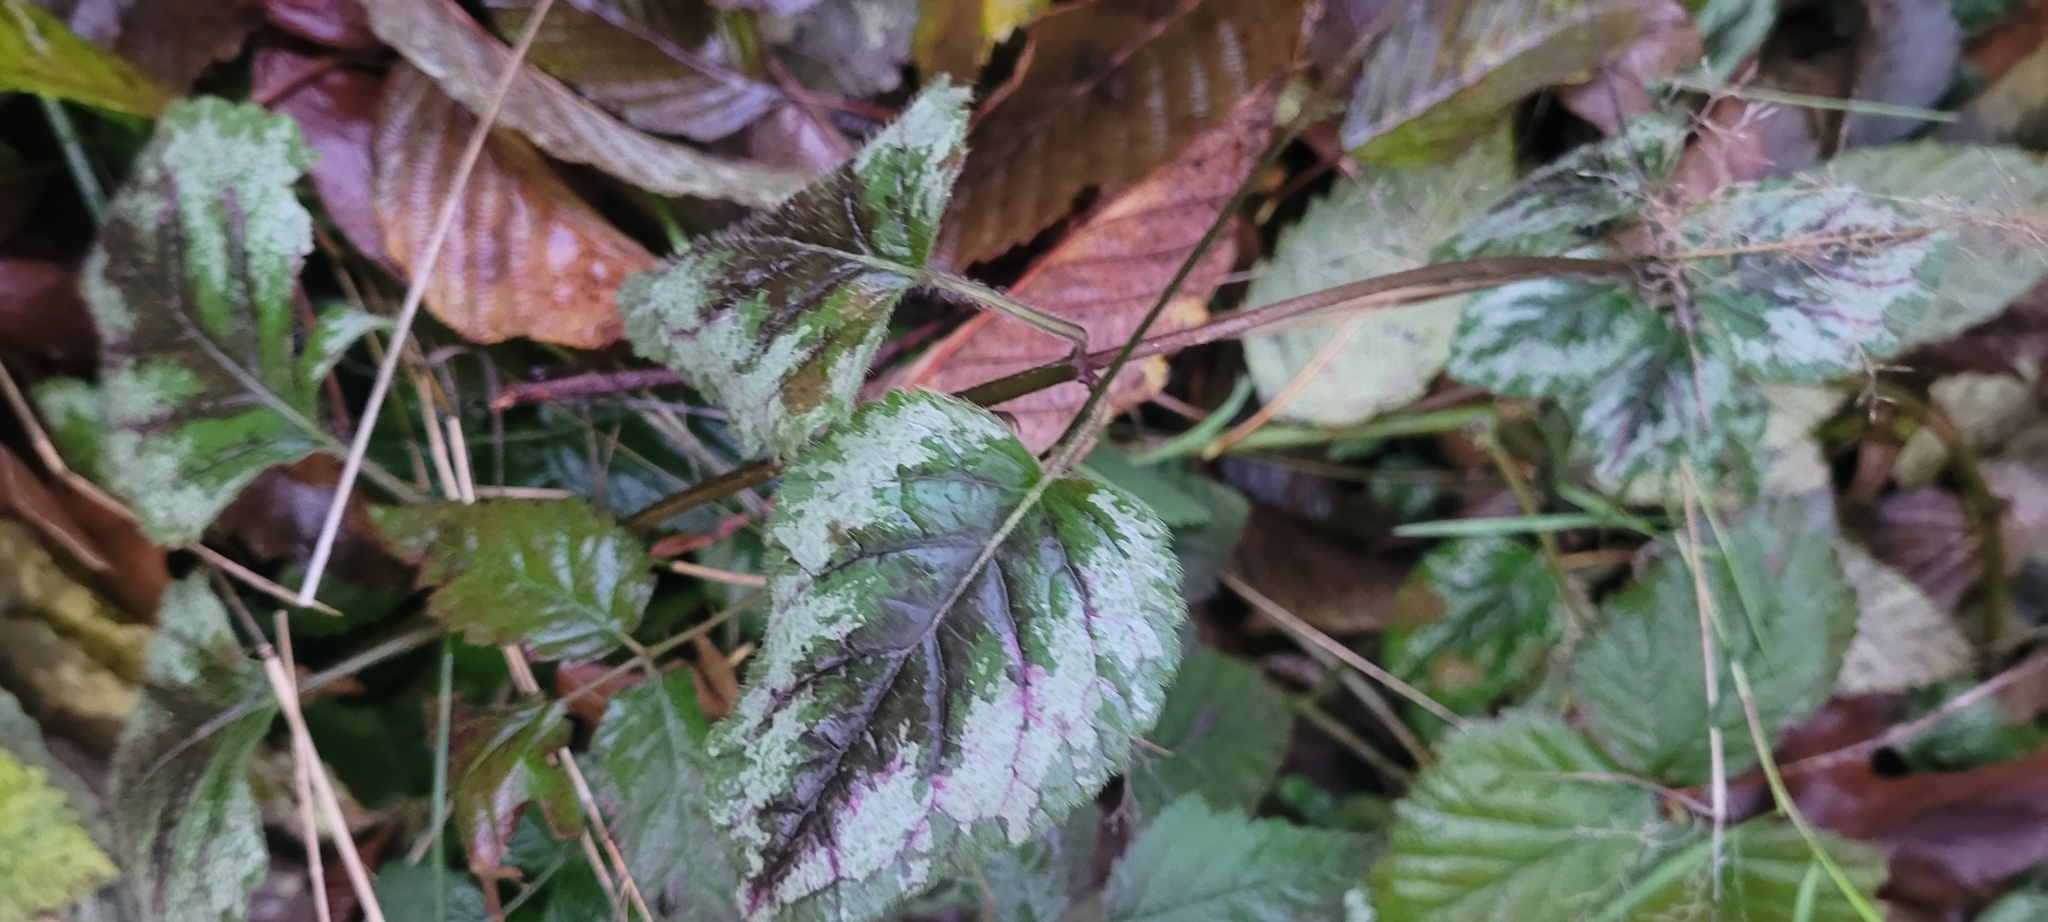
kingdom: Plantae
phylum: Tracheophyta
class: Magnoliopsida
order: Lamiales
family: Lamiaceae
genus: Lamium
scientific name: Lamium galeobdolon
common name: Yellow archangel
